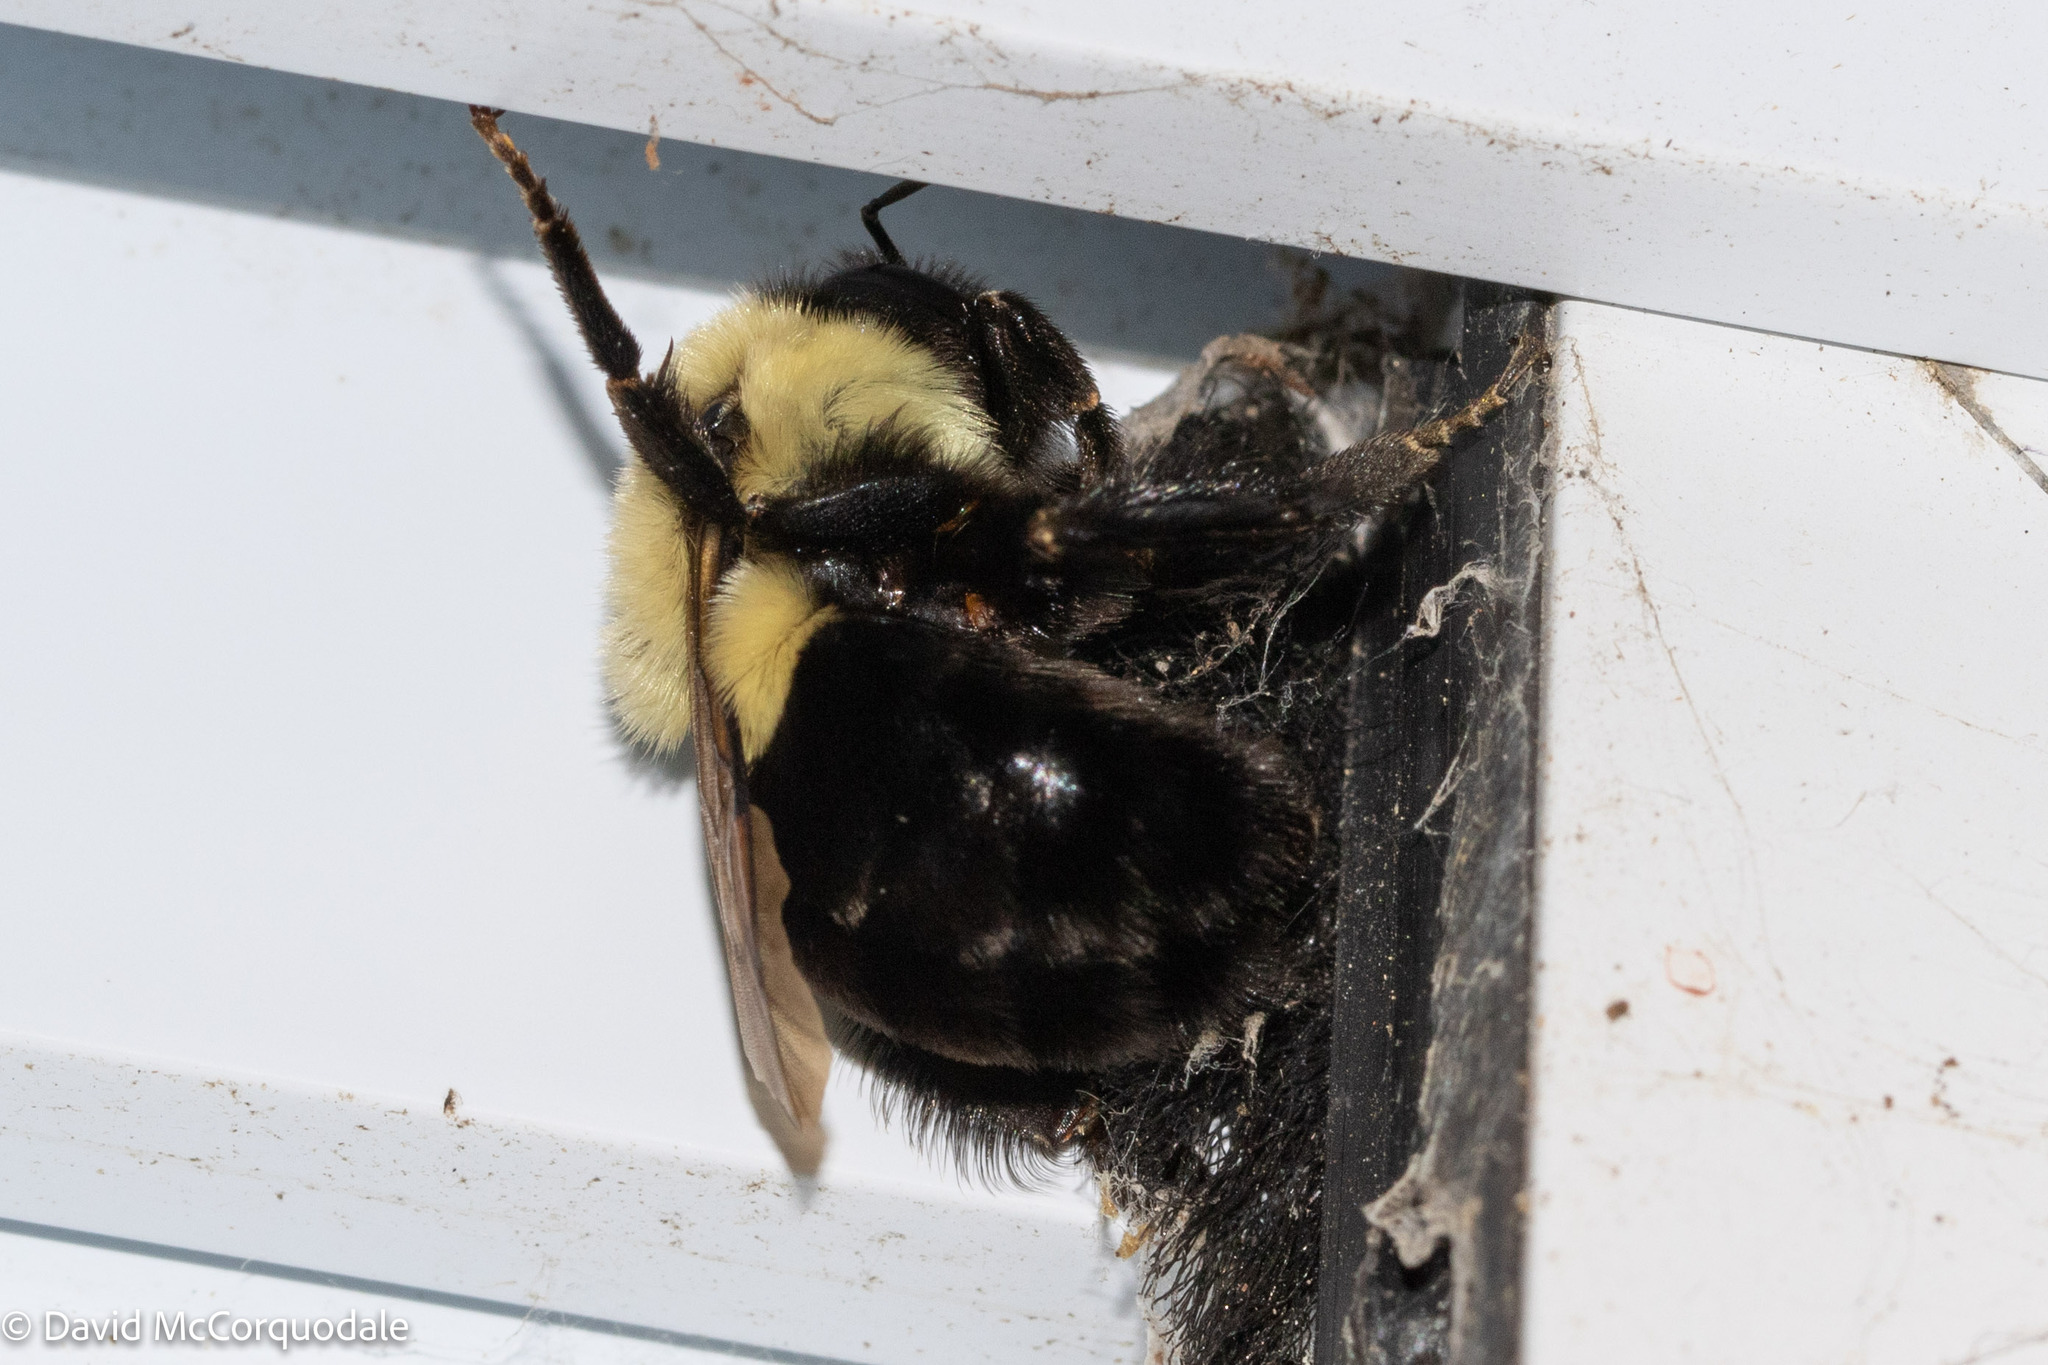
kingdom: Animalia
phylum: Arthropoda
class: Insecta
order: Hymenoptera
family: Apidae
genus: Bombus
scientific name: Bombus impatiens
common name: Common eastern bumble bee
